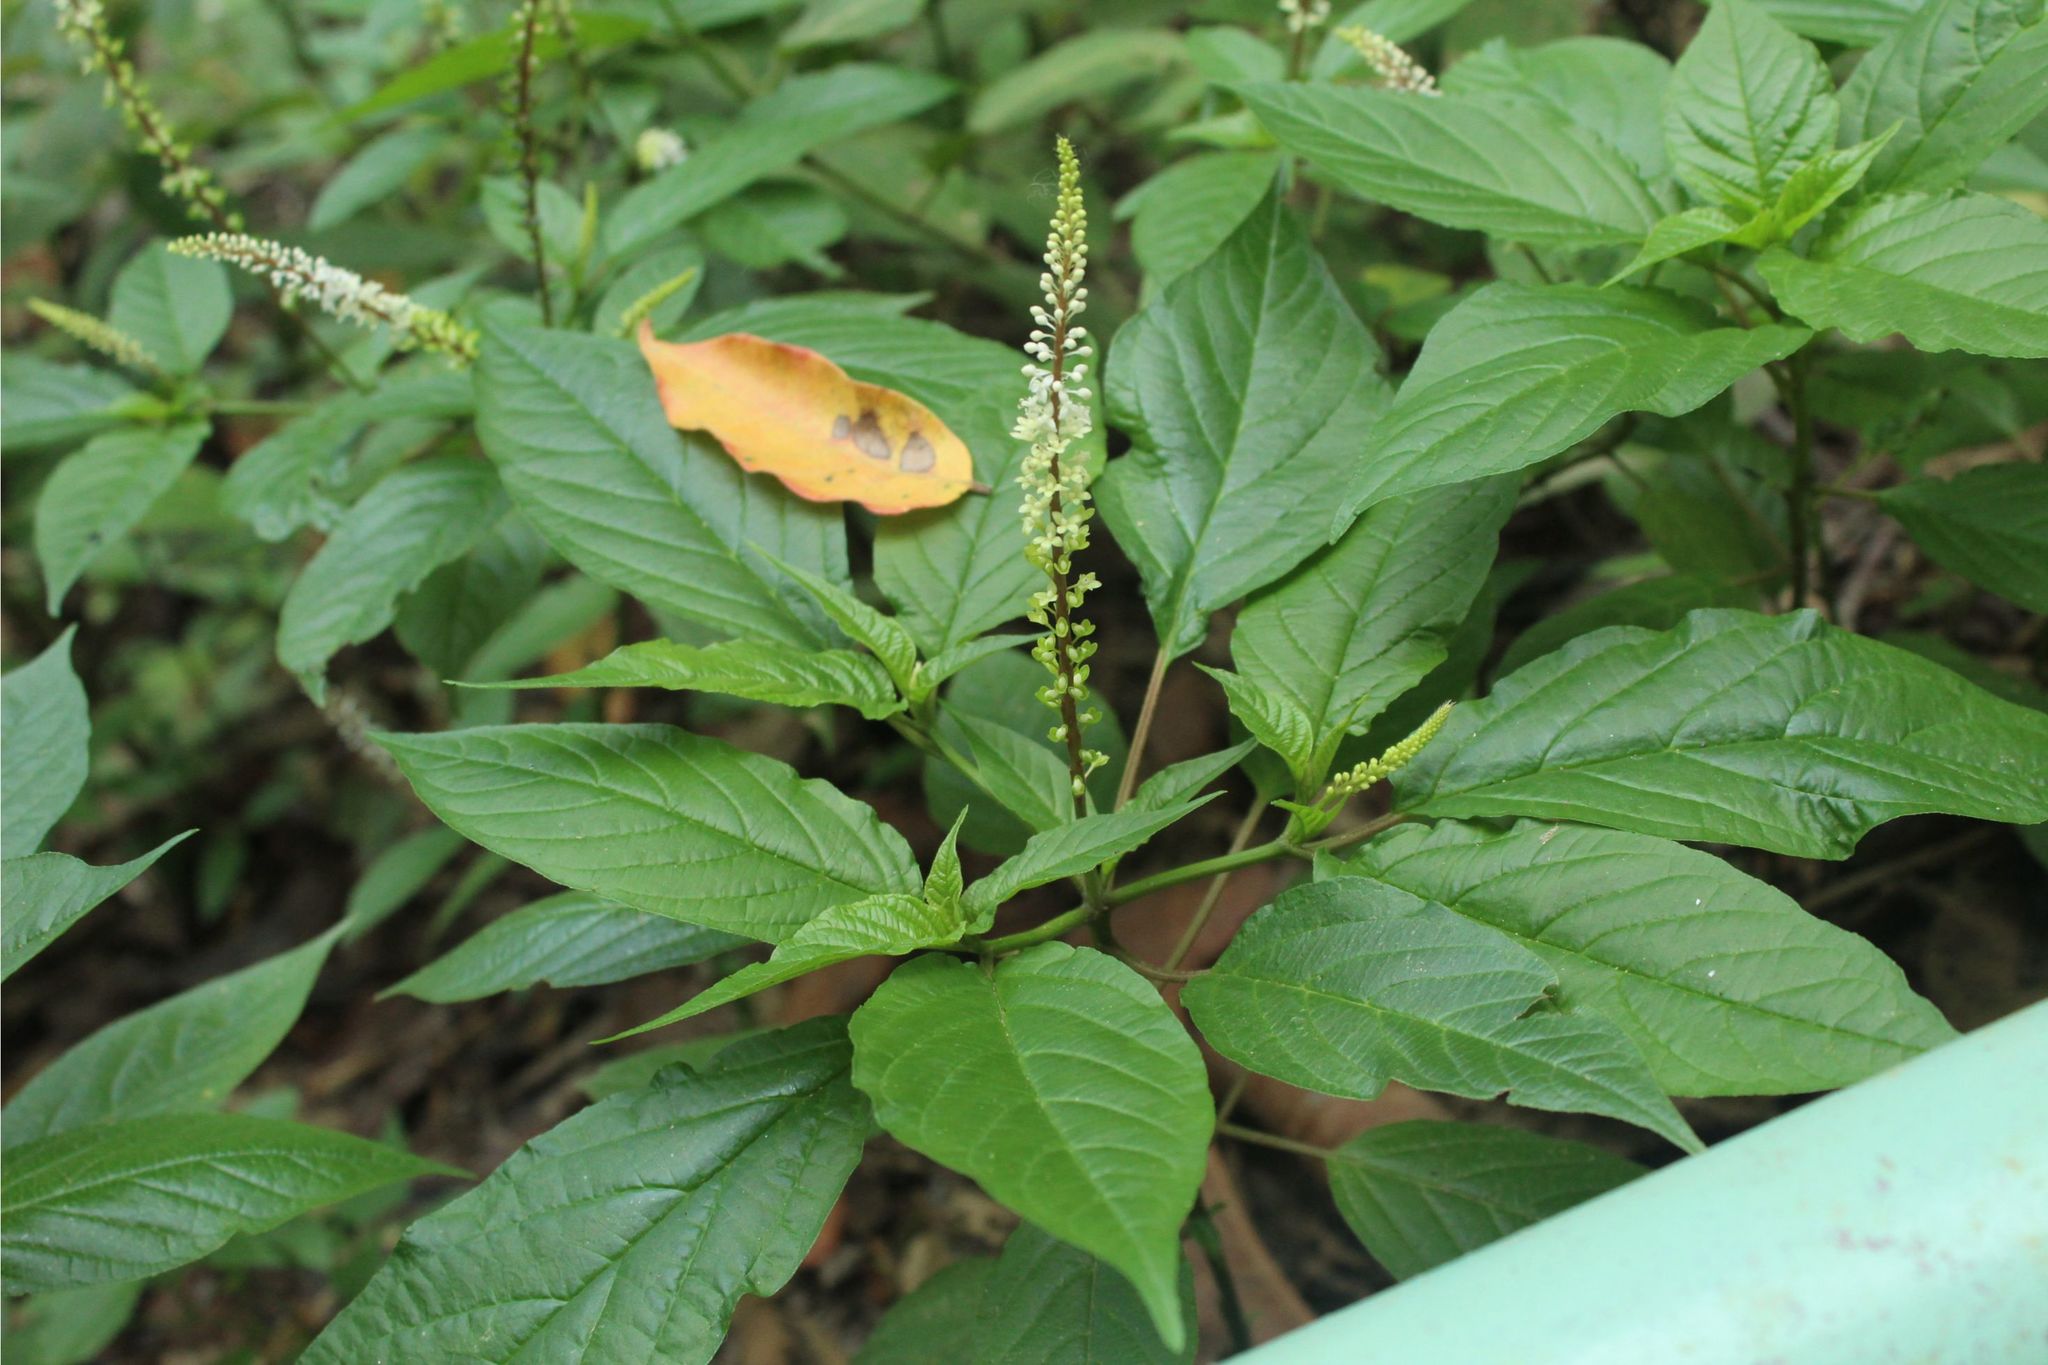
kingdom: Plantae
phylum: Tracheophyta
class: Magnoliopsida
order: Caryophyllales
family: Phytolaccaceae
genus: Rivina
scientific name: Rivina humilis
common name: Rougeplant
